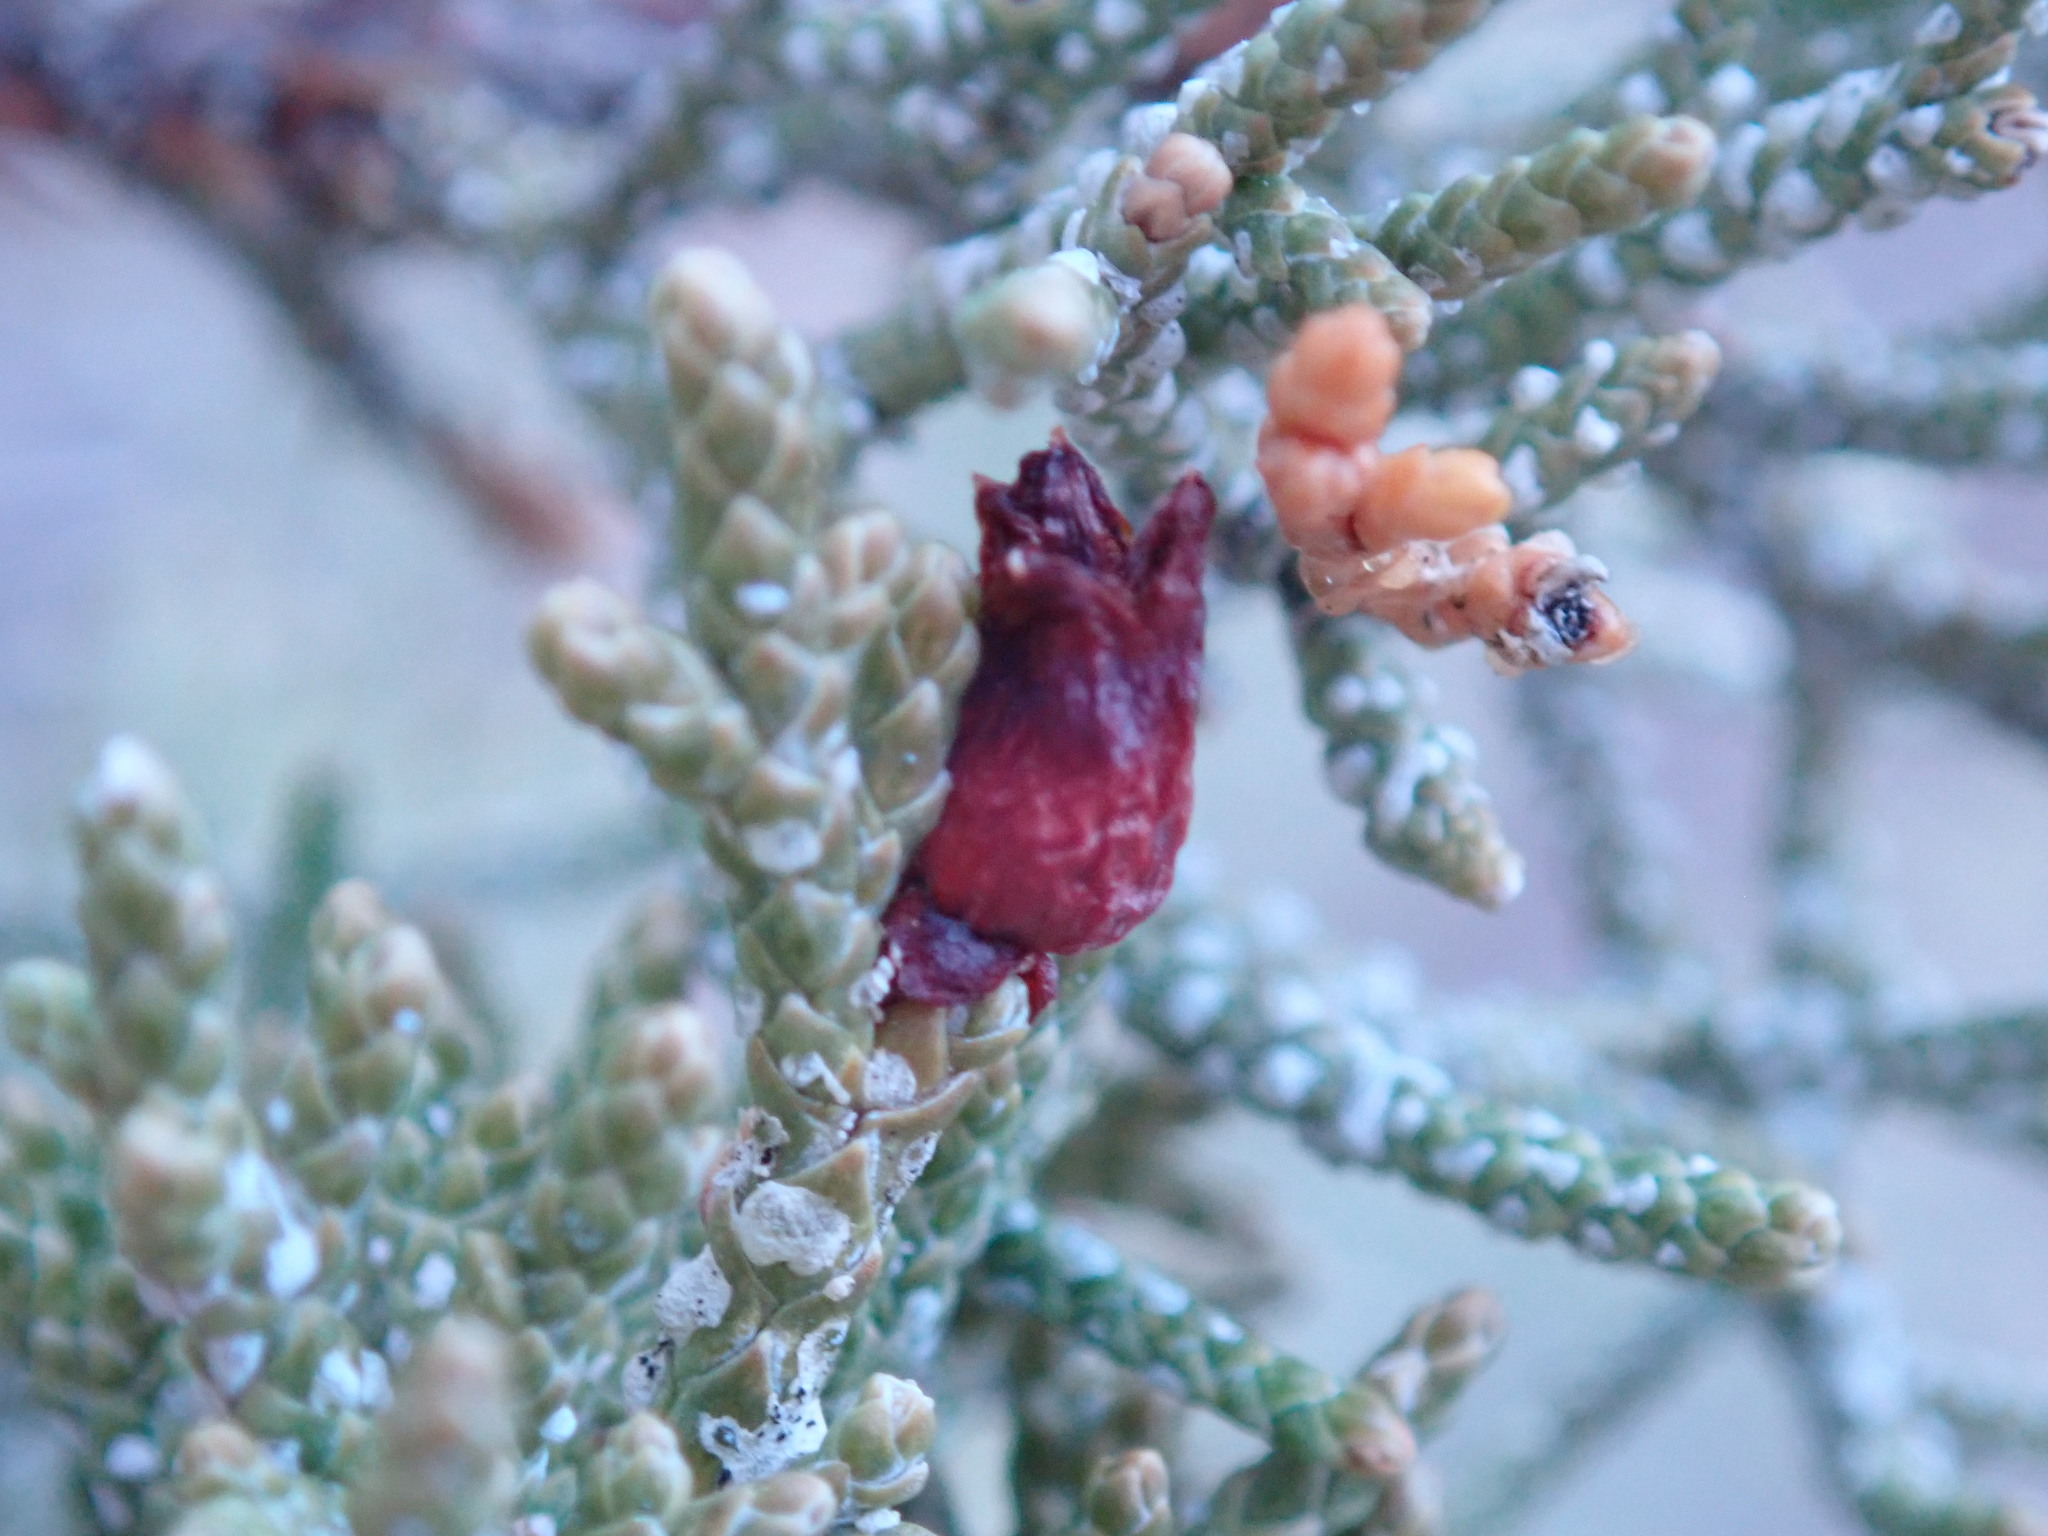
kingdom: Animalia
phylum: Arthropoda
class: Insecta
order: Diptera
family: Cecidomyiidae
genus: Walshomyia
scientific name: Walshomyia juniperina
